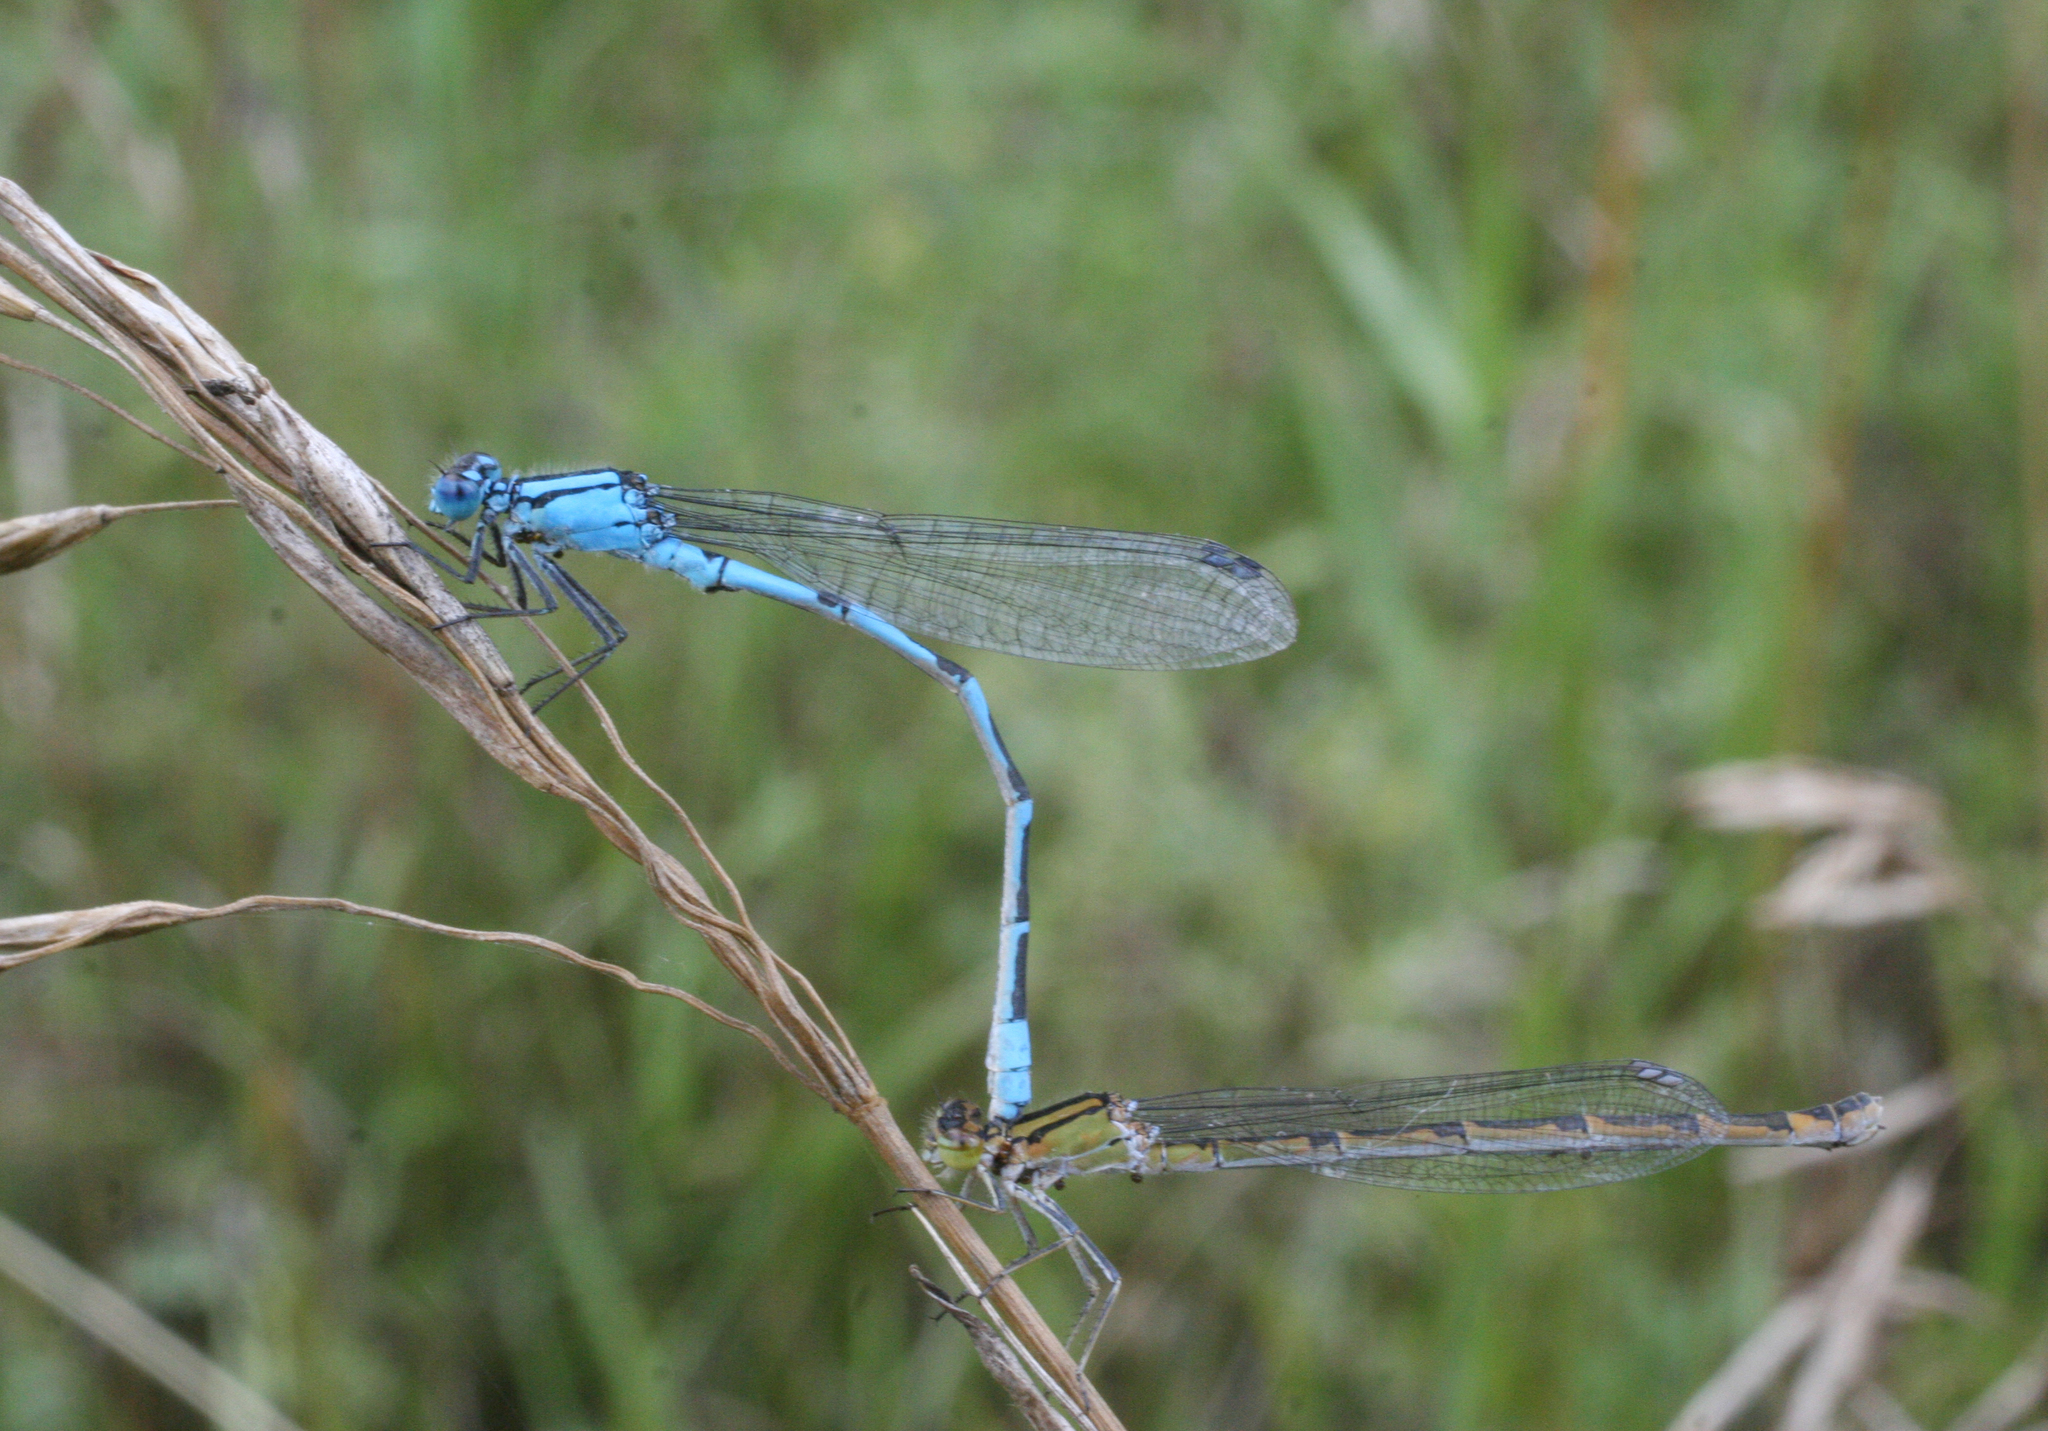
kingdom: Animalia
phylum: Arthropoda
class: Insecta
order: Odonata
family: Coenagrionidae
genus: Enallagma
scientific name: Enallagma cyathigerum
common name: Common blue damselfly
